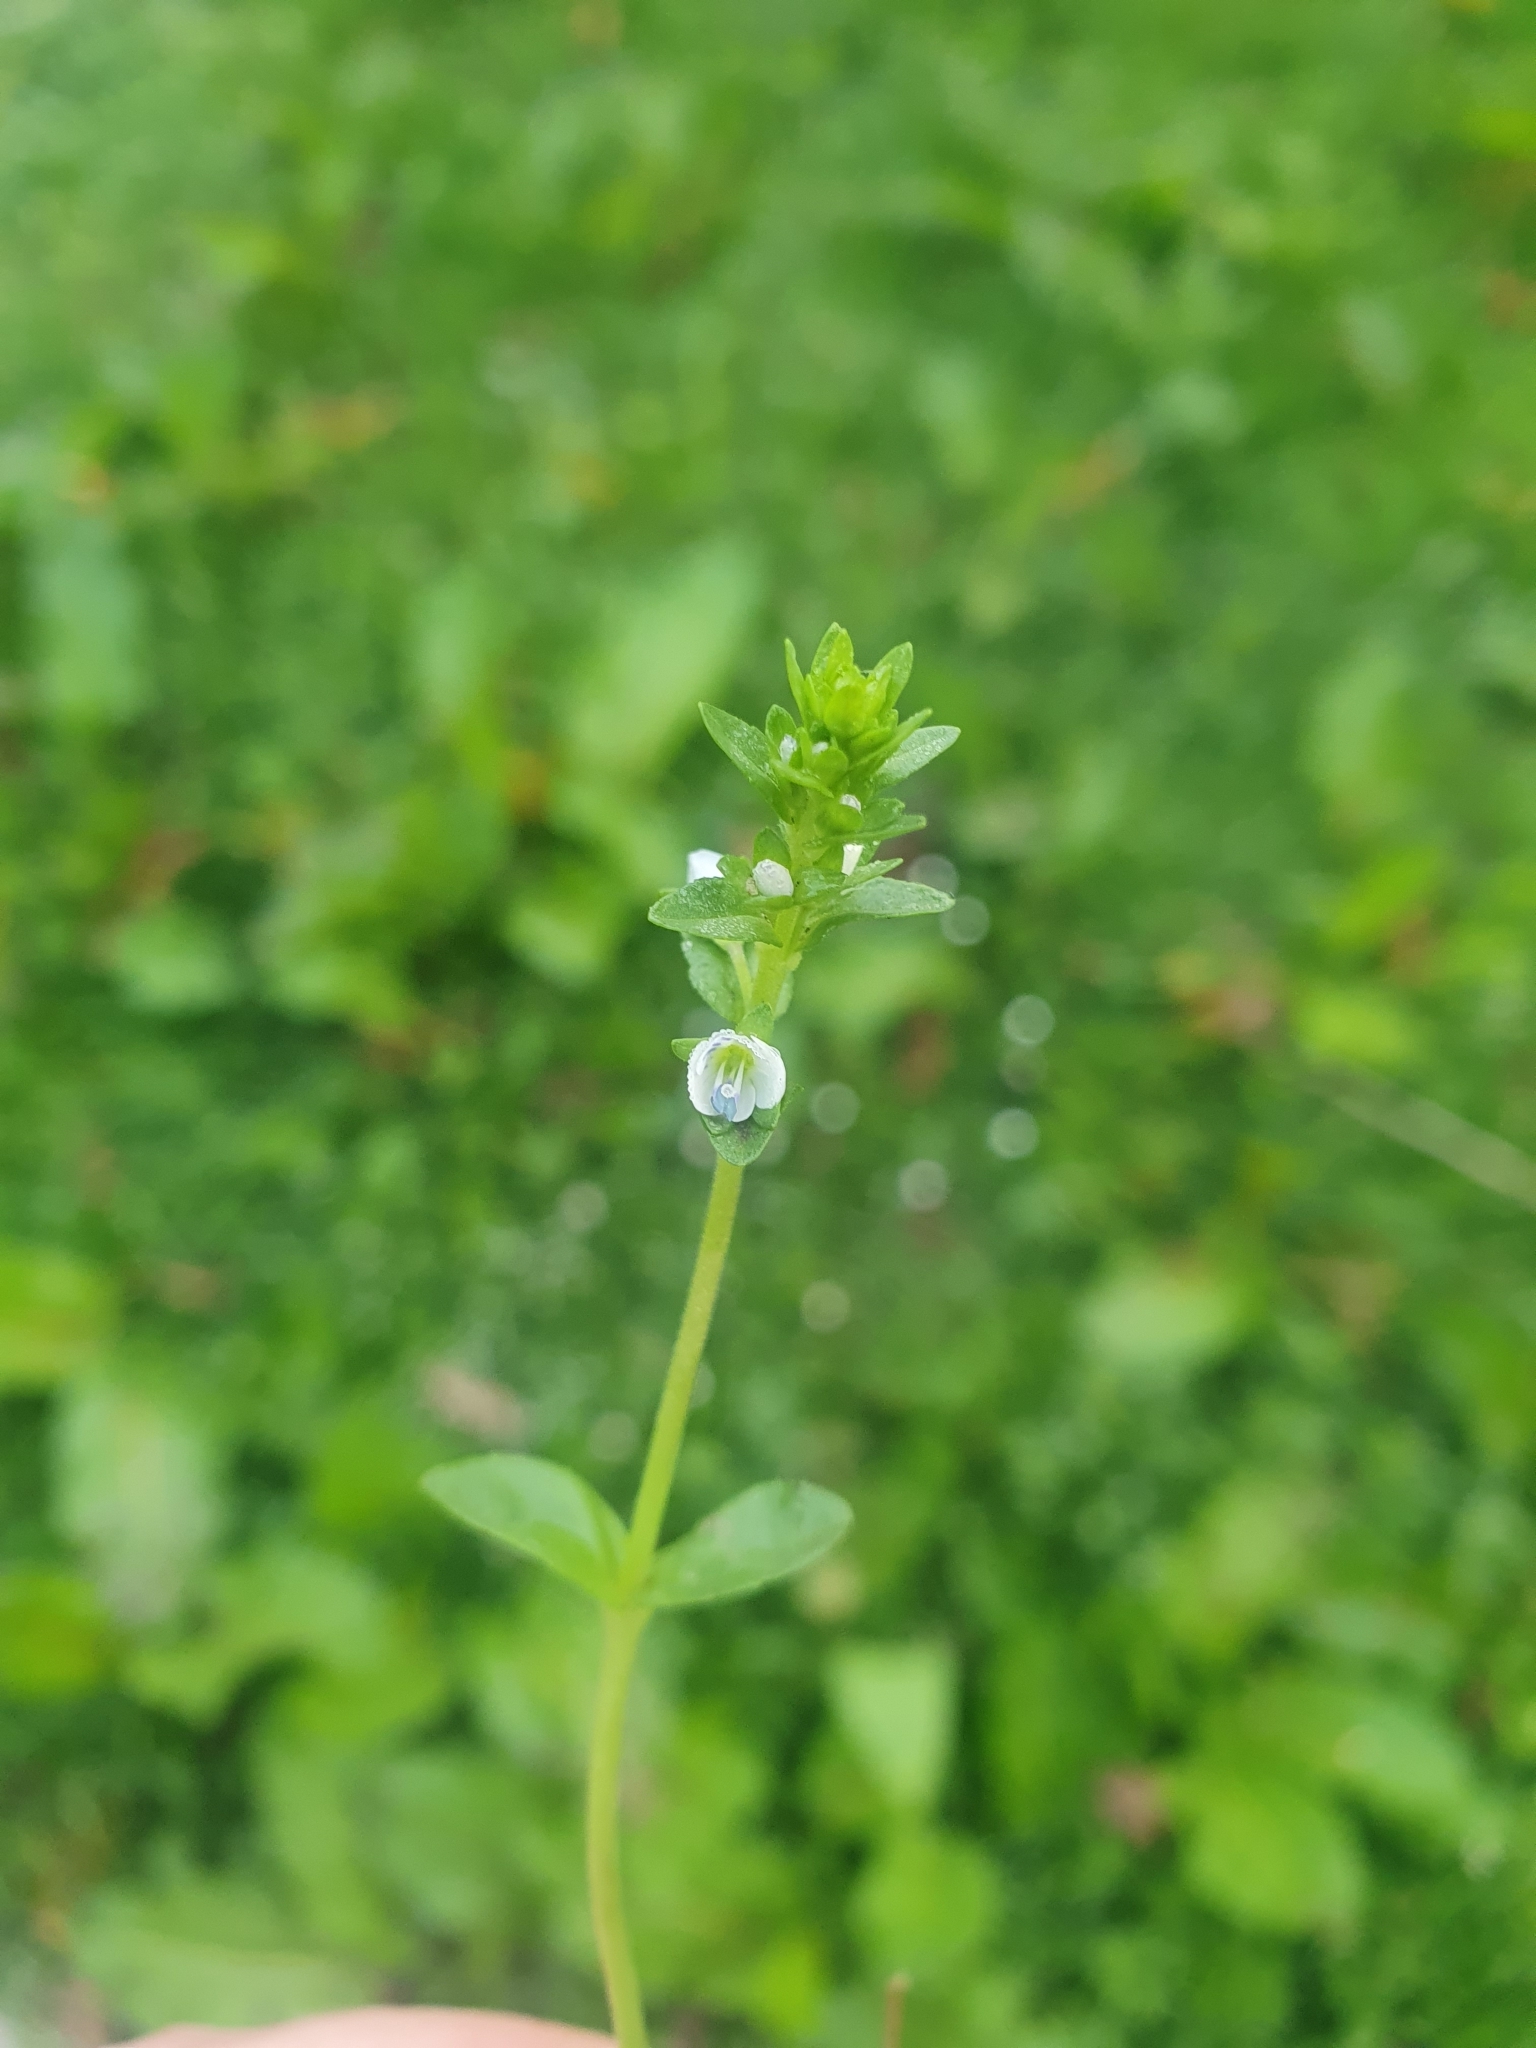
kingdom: Plantae
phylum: Tracheophyta
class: Magnoliopsida
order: Lamiales
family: Plantaginaceae
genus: Veronica
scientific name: Veronica serpyllifolia
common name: Thyme-leaved speedwell
